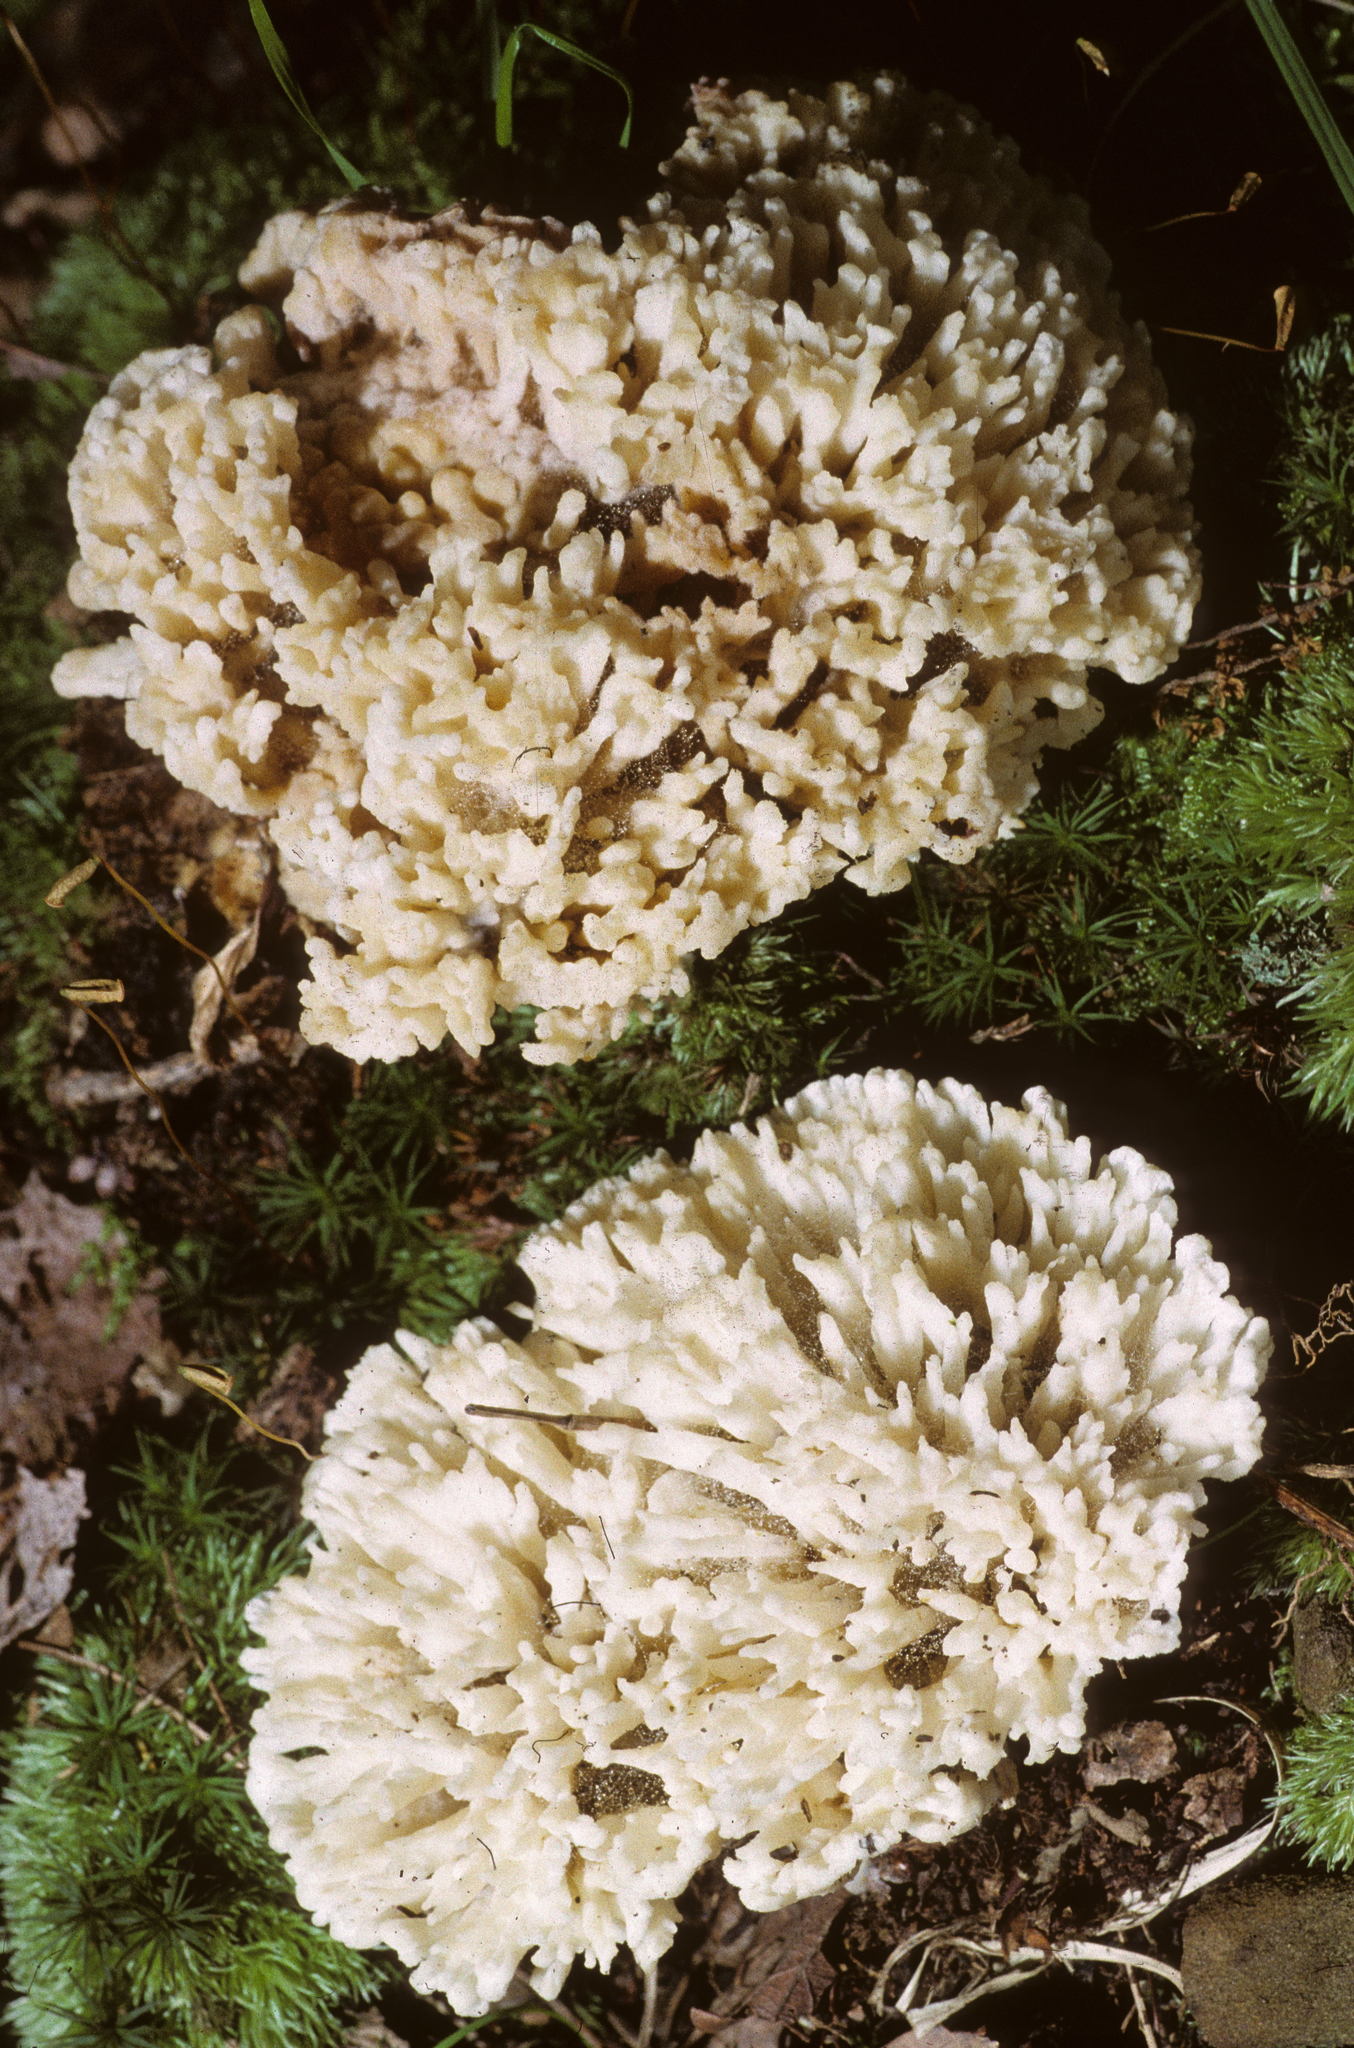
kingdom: Fungi
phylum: Basidiomycota
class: Agaricomycetes
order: Sebacinales
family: Sebacinaceae
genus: Sebacina
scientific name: Sebacina schweinitzii
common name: Jellied false coral fungus
